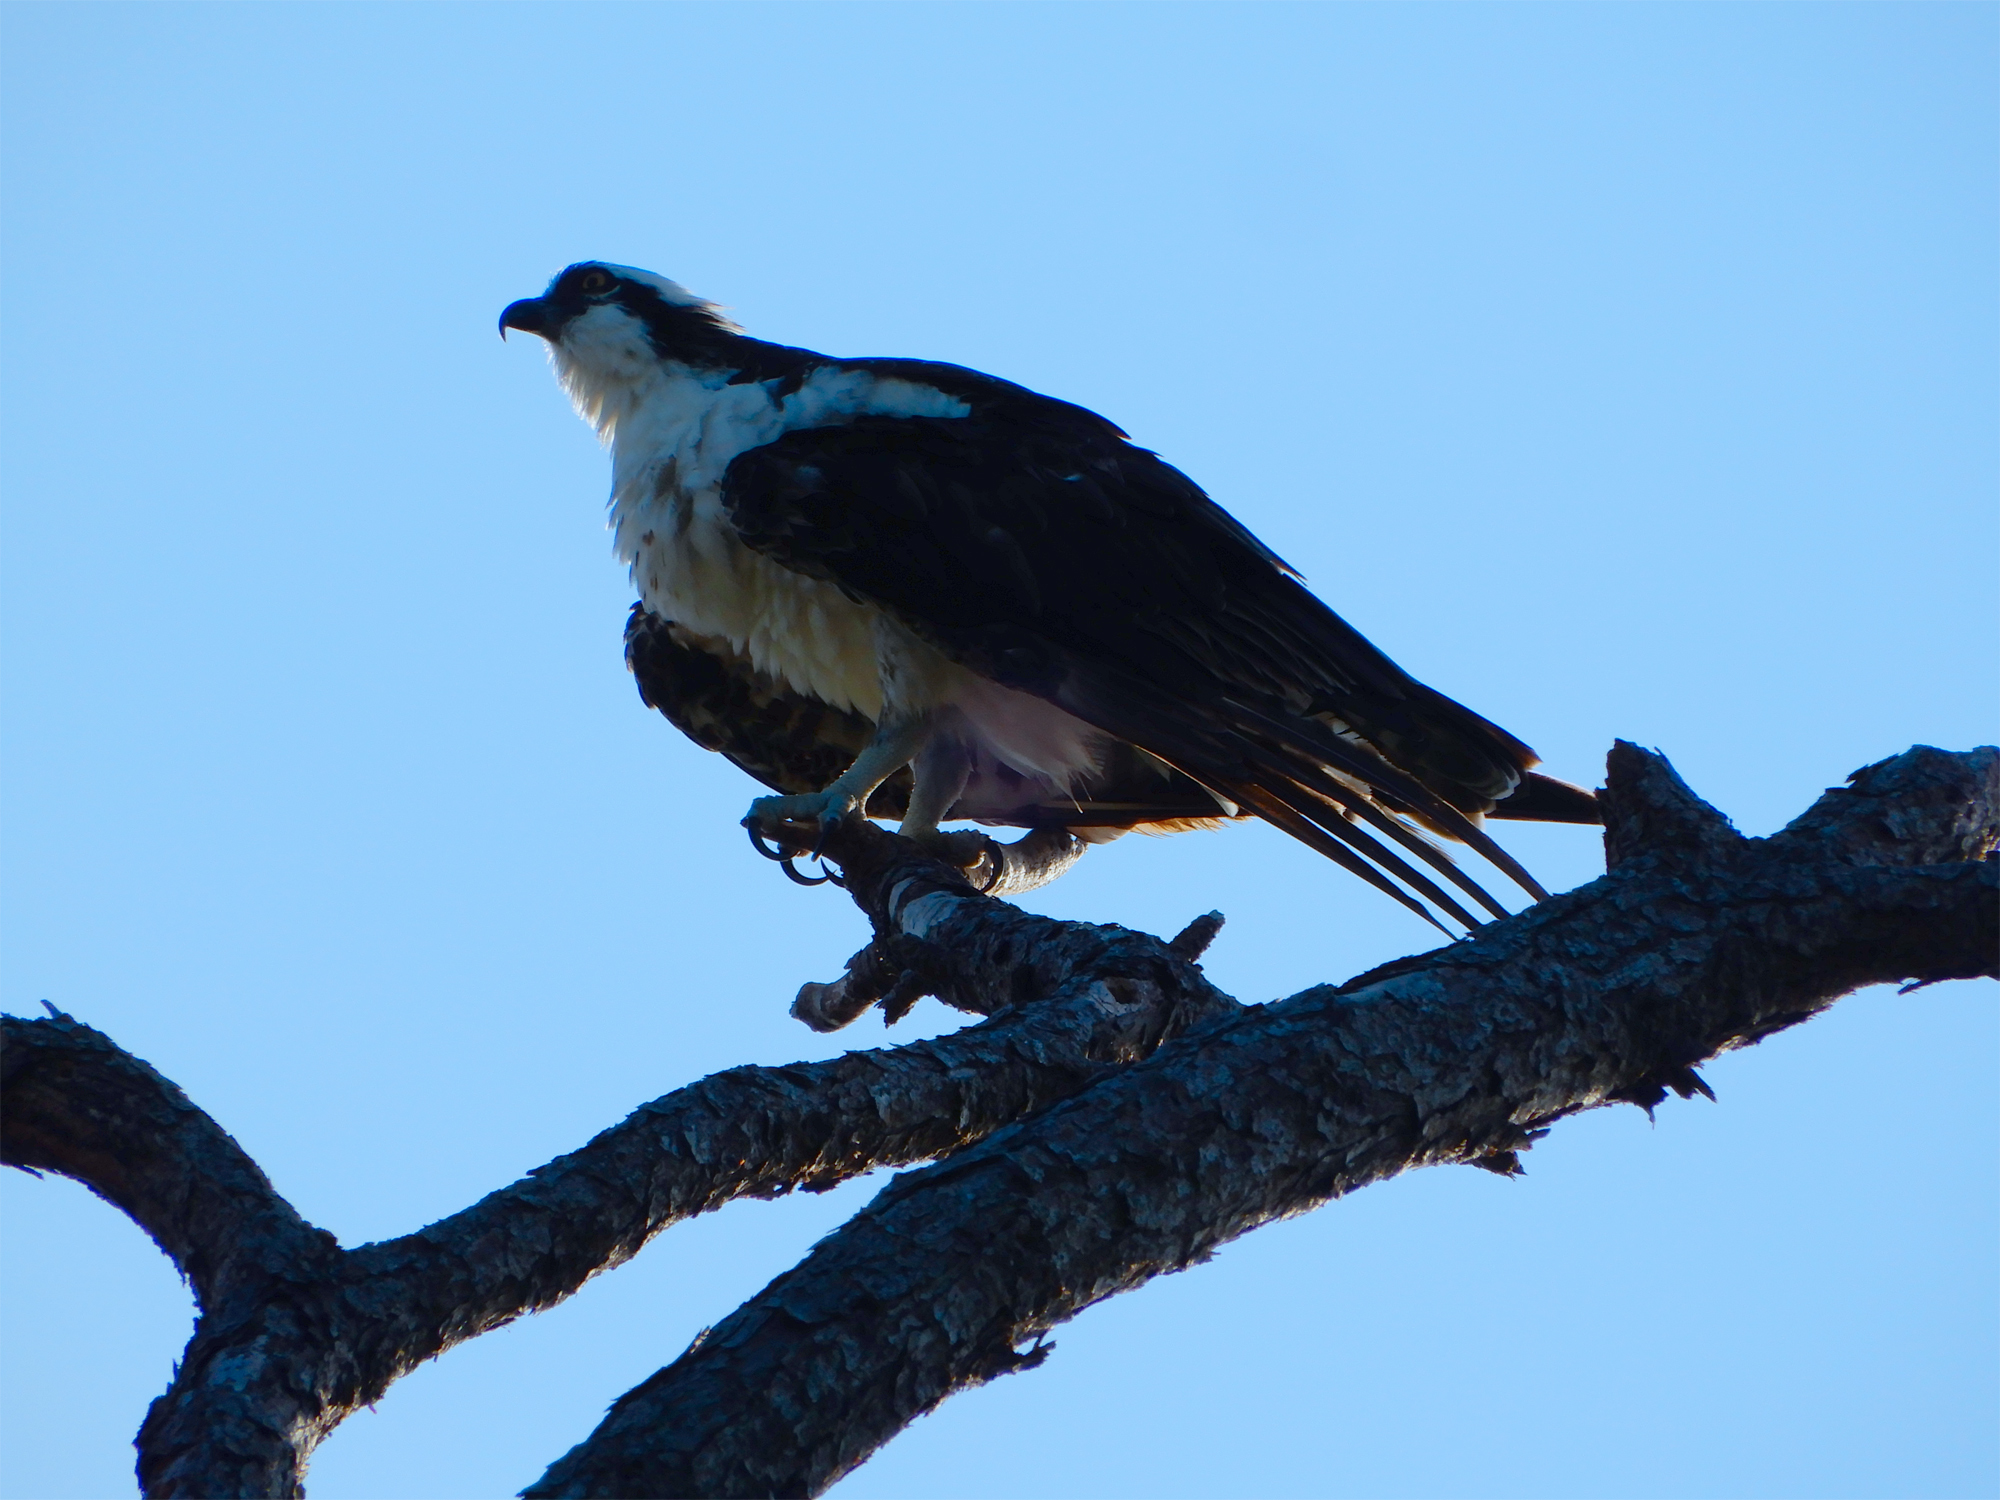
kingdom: Animalia
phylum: Chordata
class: Aves
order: Accipitriformes
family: Pandionidae
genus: Pandion
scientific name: Pandion haliaetus
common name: Osprey
